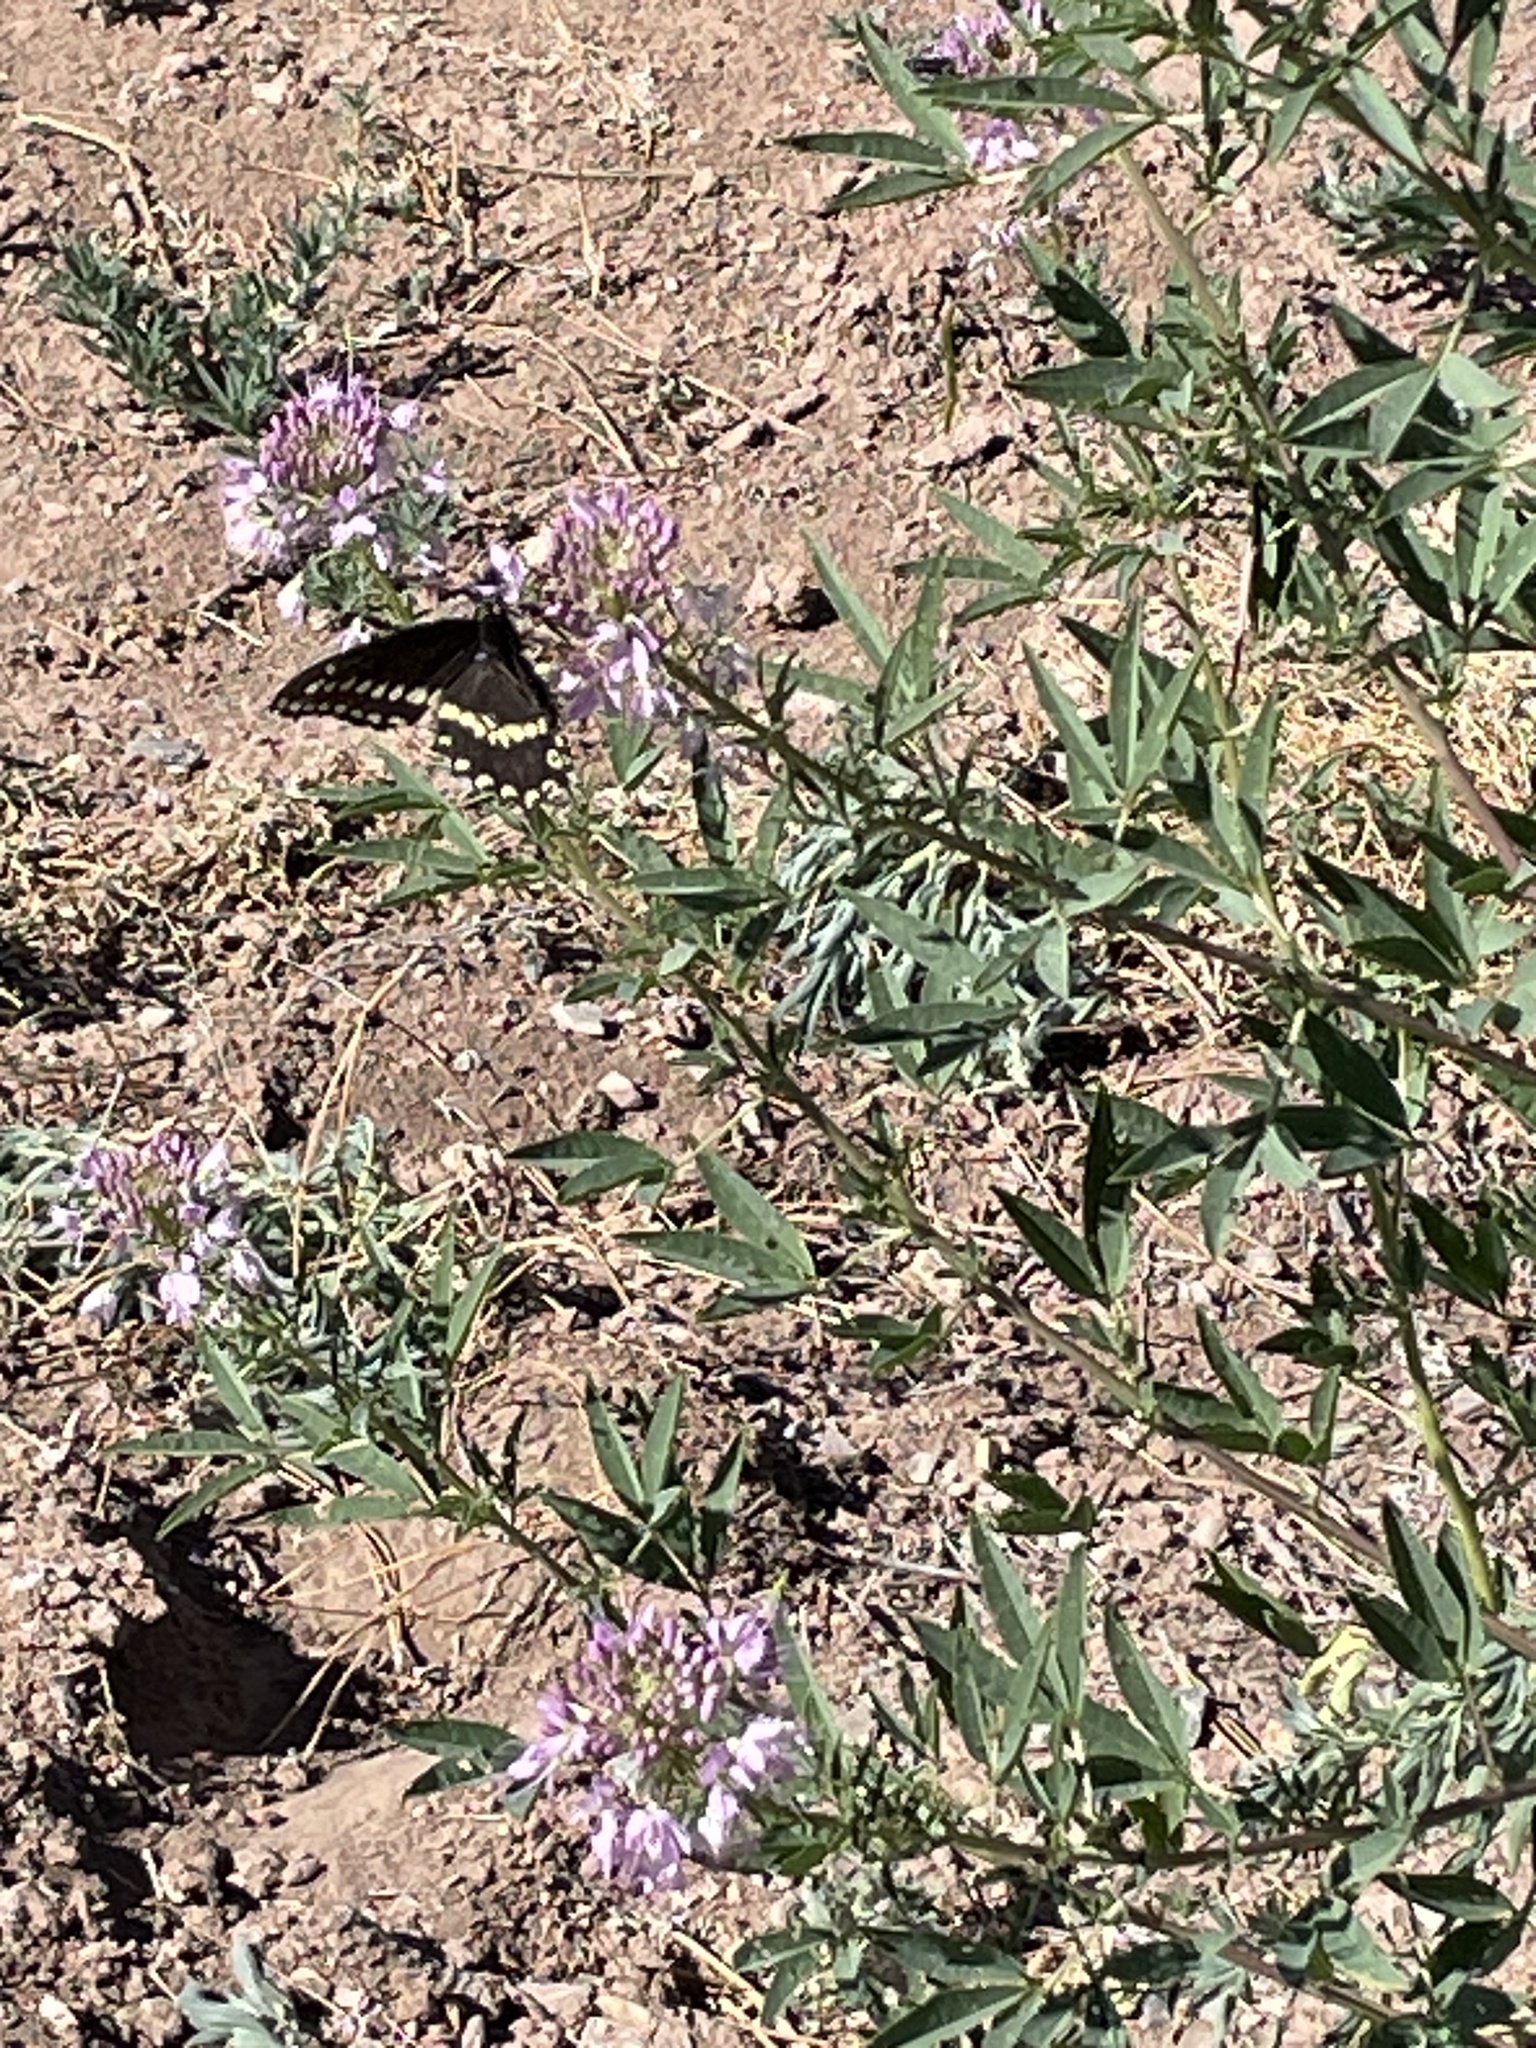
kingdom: Animalia
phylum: Arthropoda
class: Insecta
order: Lepidoptera
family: Papilionidae
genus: Papilio
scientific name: Papilio polyxenes
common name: Black swallowtail
